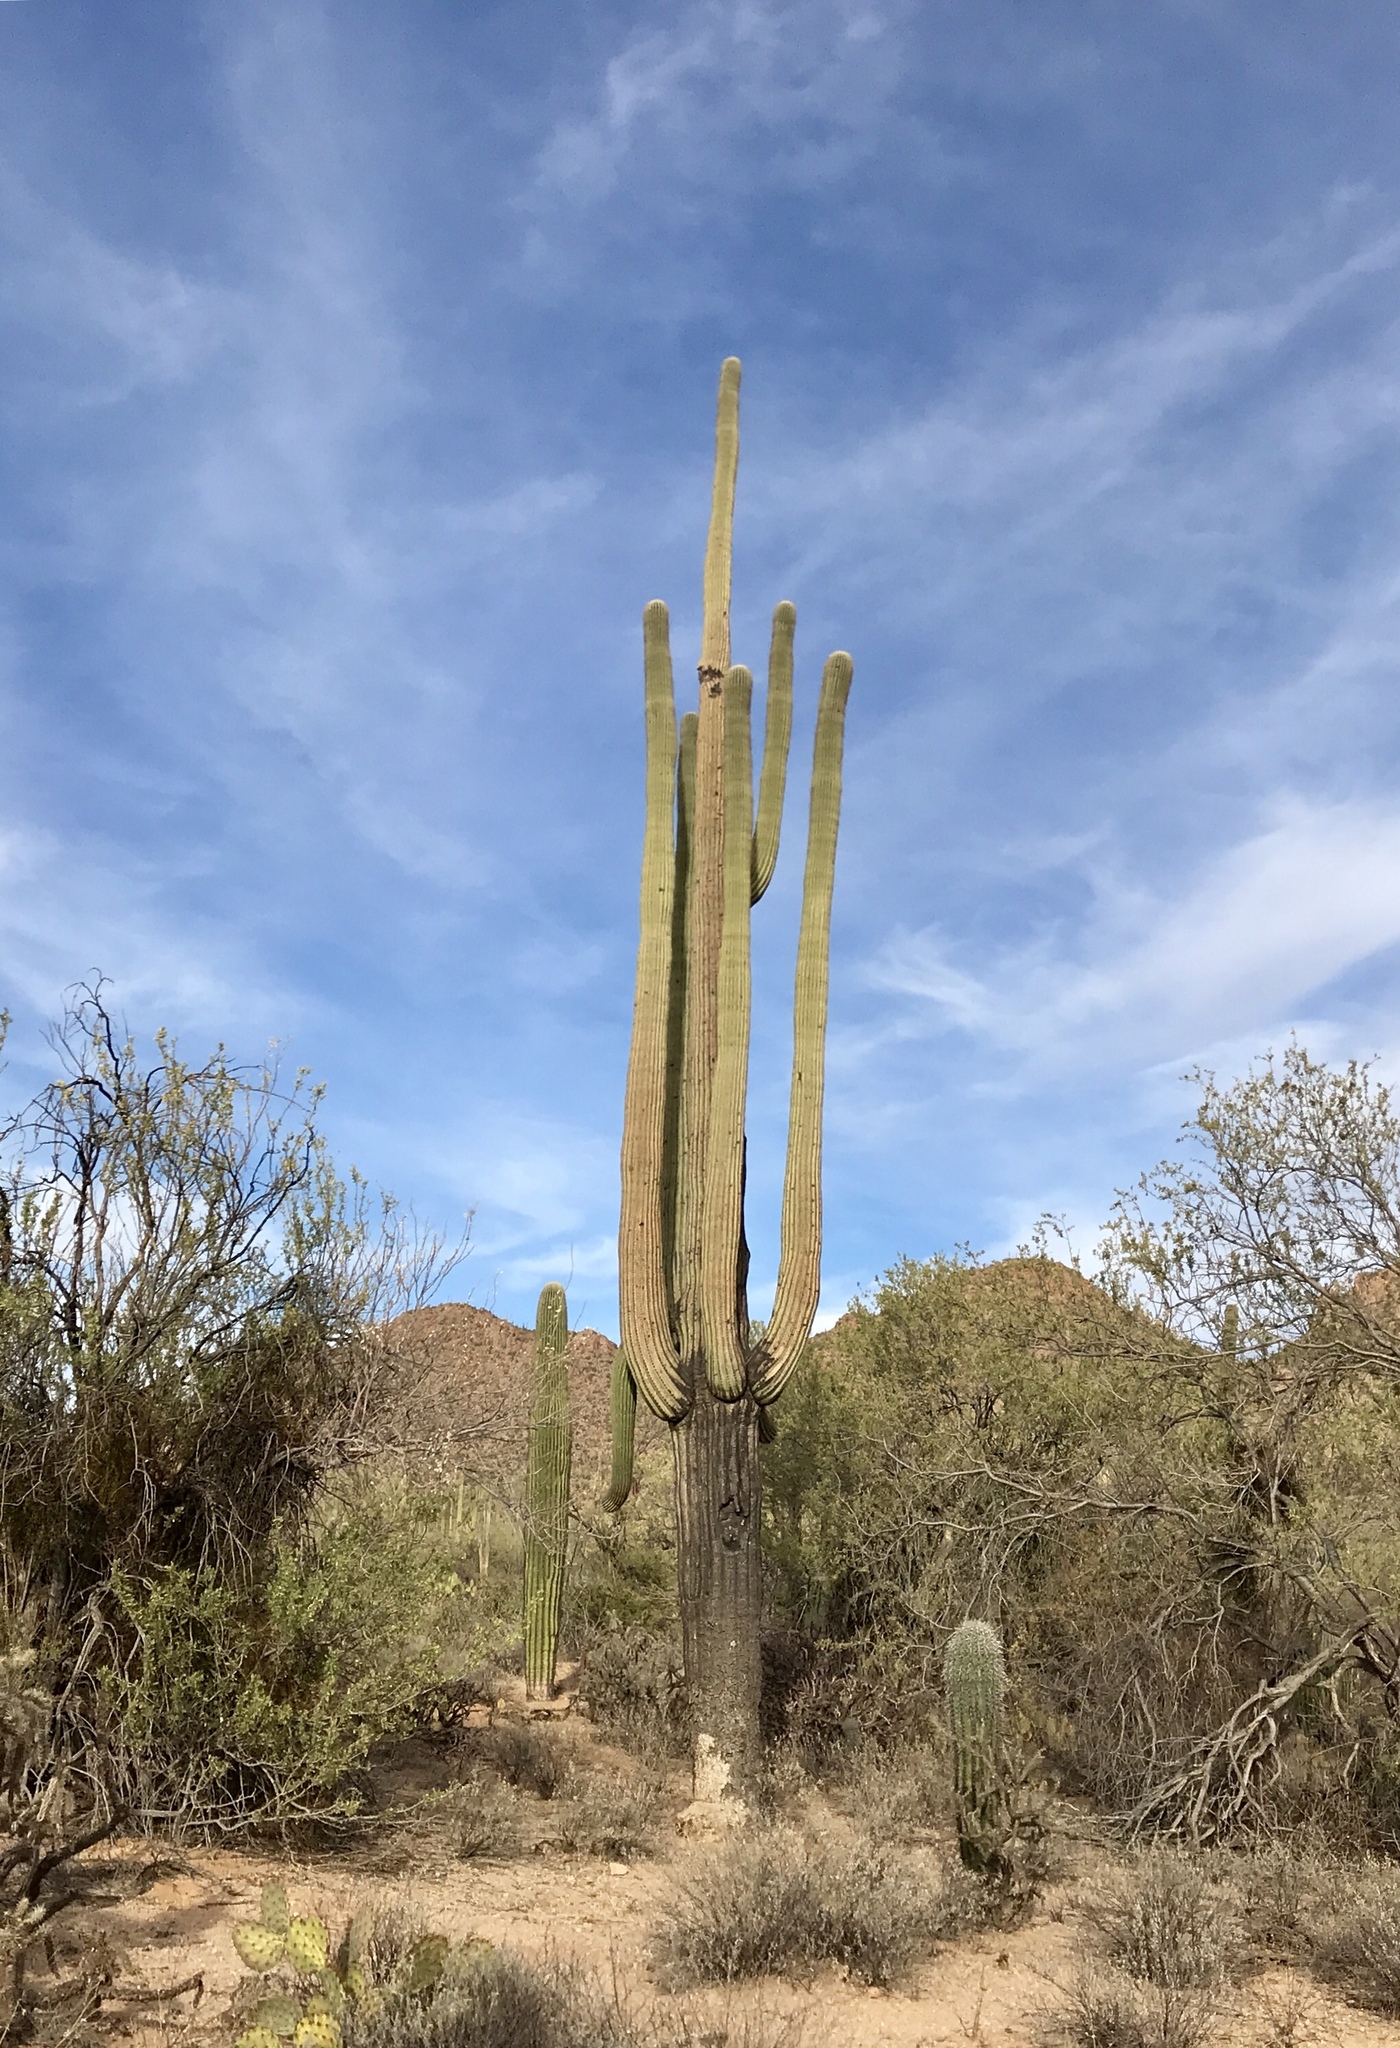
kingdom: Plantae
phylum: Tracheophyta
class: Magnoliopsida
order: Caryophyllales
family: Cactaceae
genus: Carnegiea
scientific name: Carnegiea gigantea
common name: Saguaro
